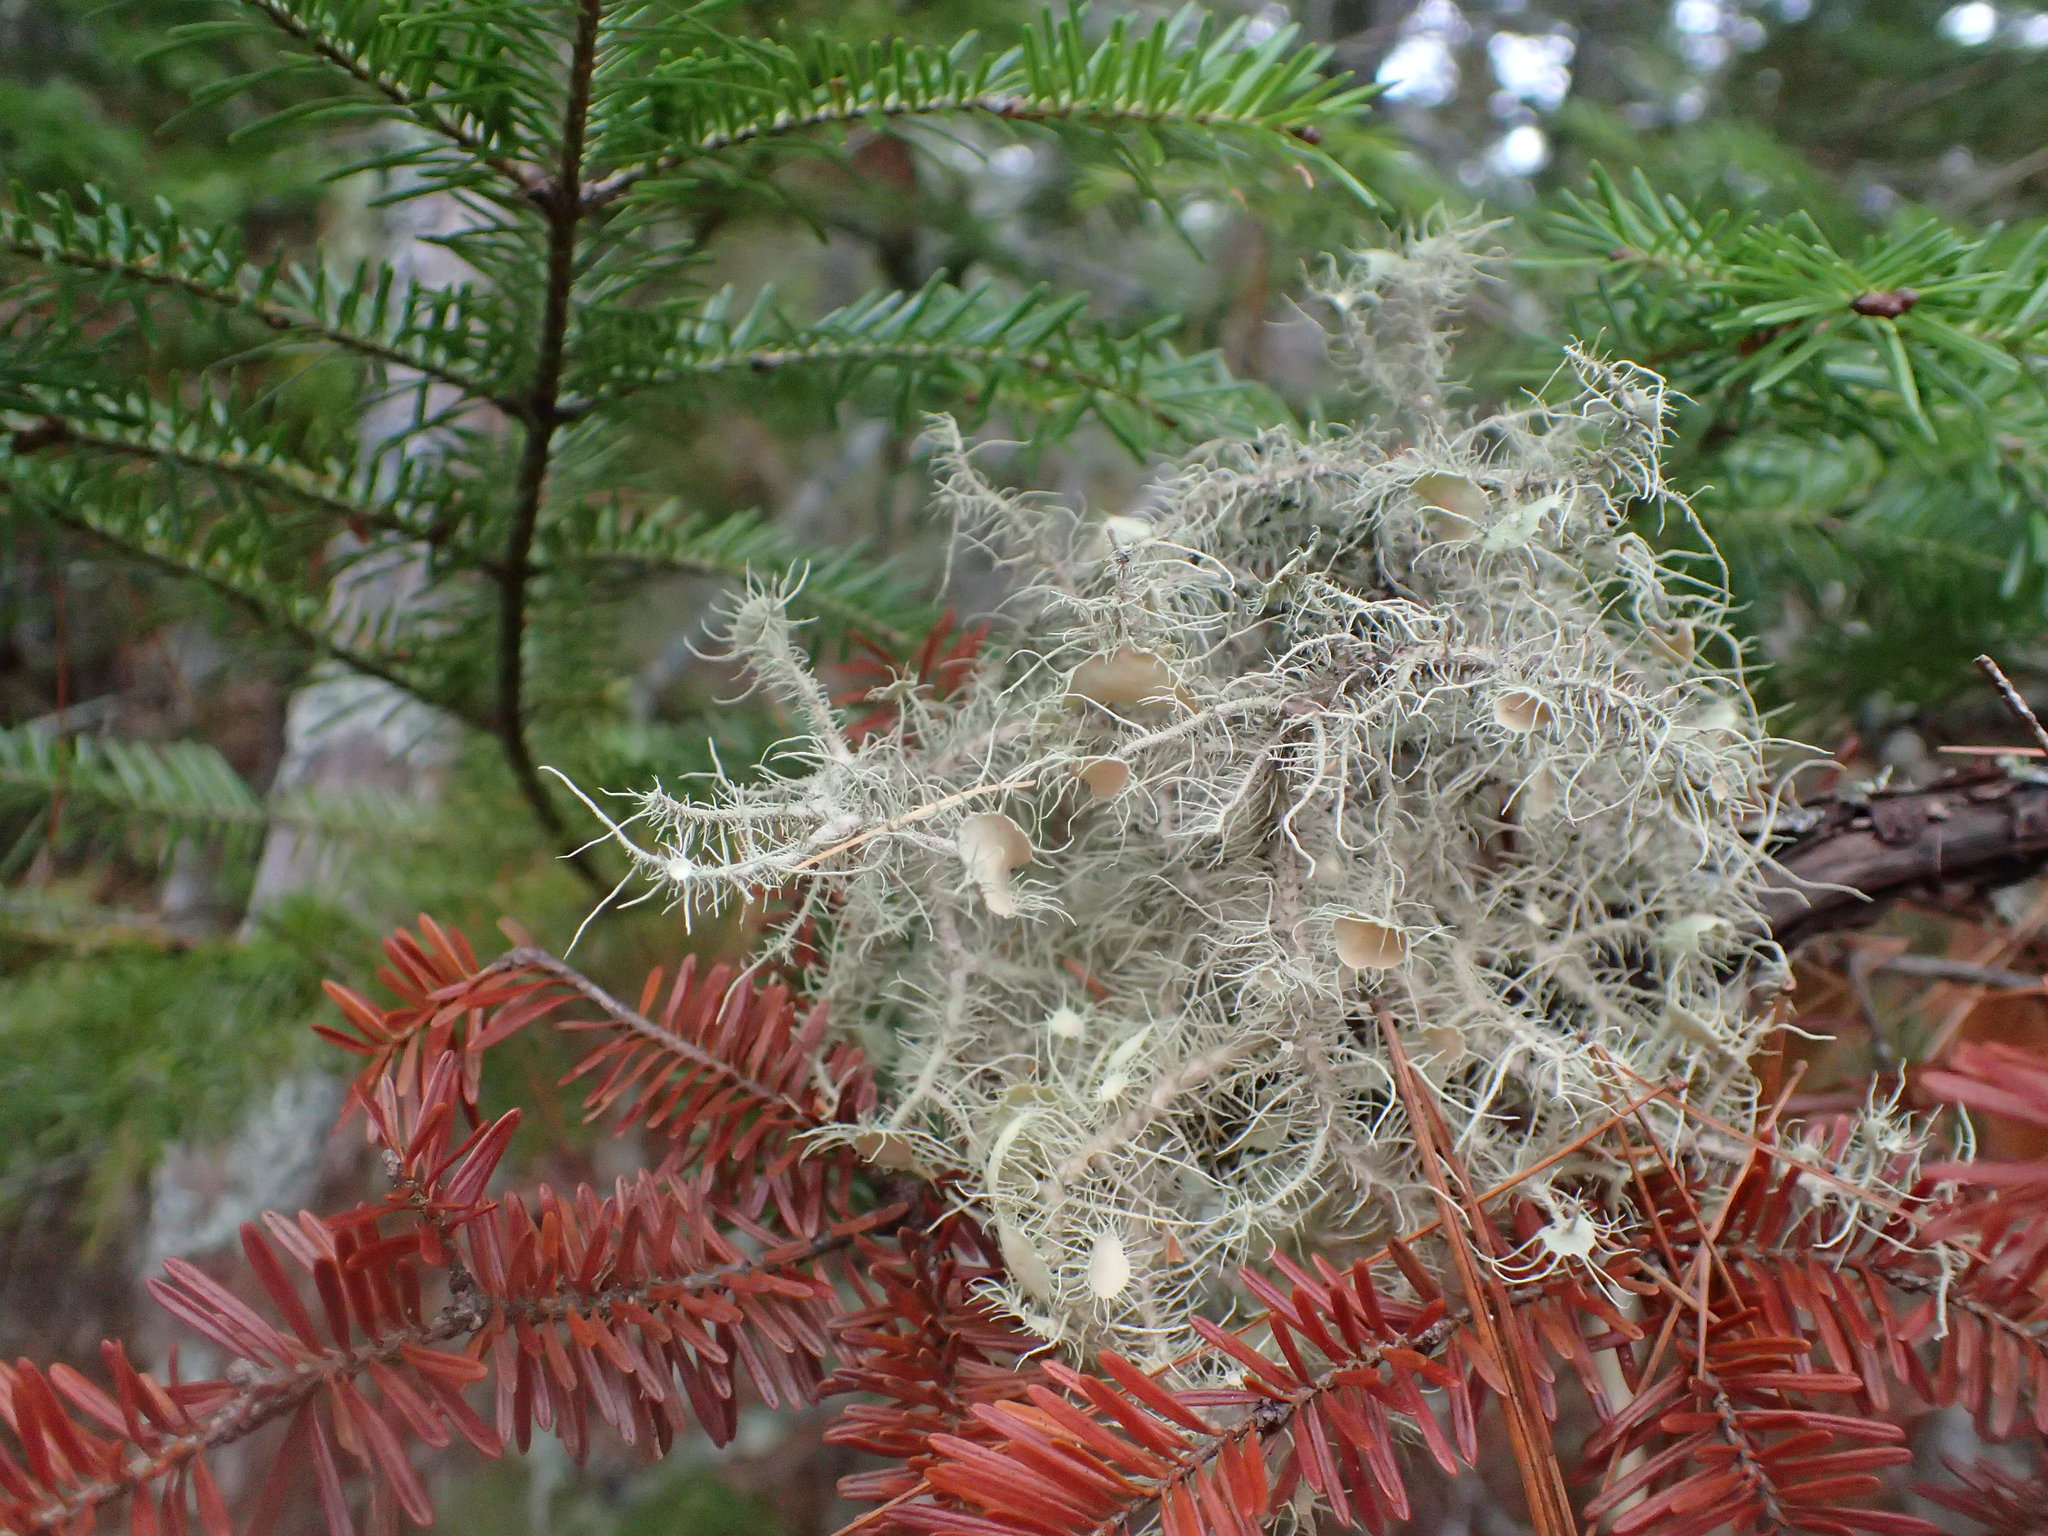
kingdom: Fungi
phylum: Ascomycota
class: Lecanoromycetes
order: Lecanorales
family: Parmeliaceae
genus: Usnea
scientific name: Usnea strigosa
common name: Bushy beard lichen
